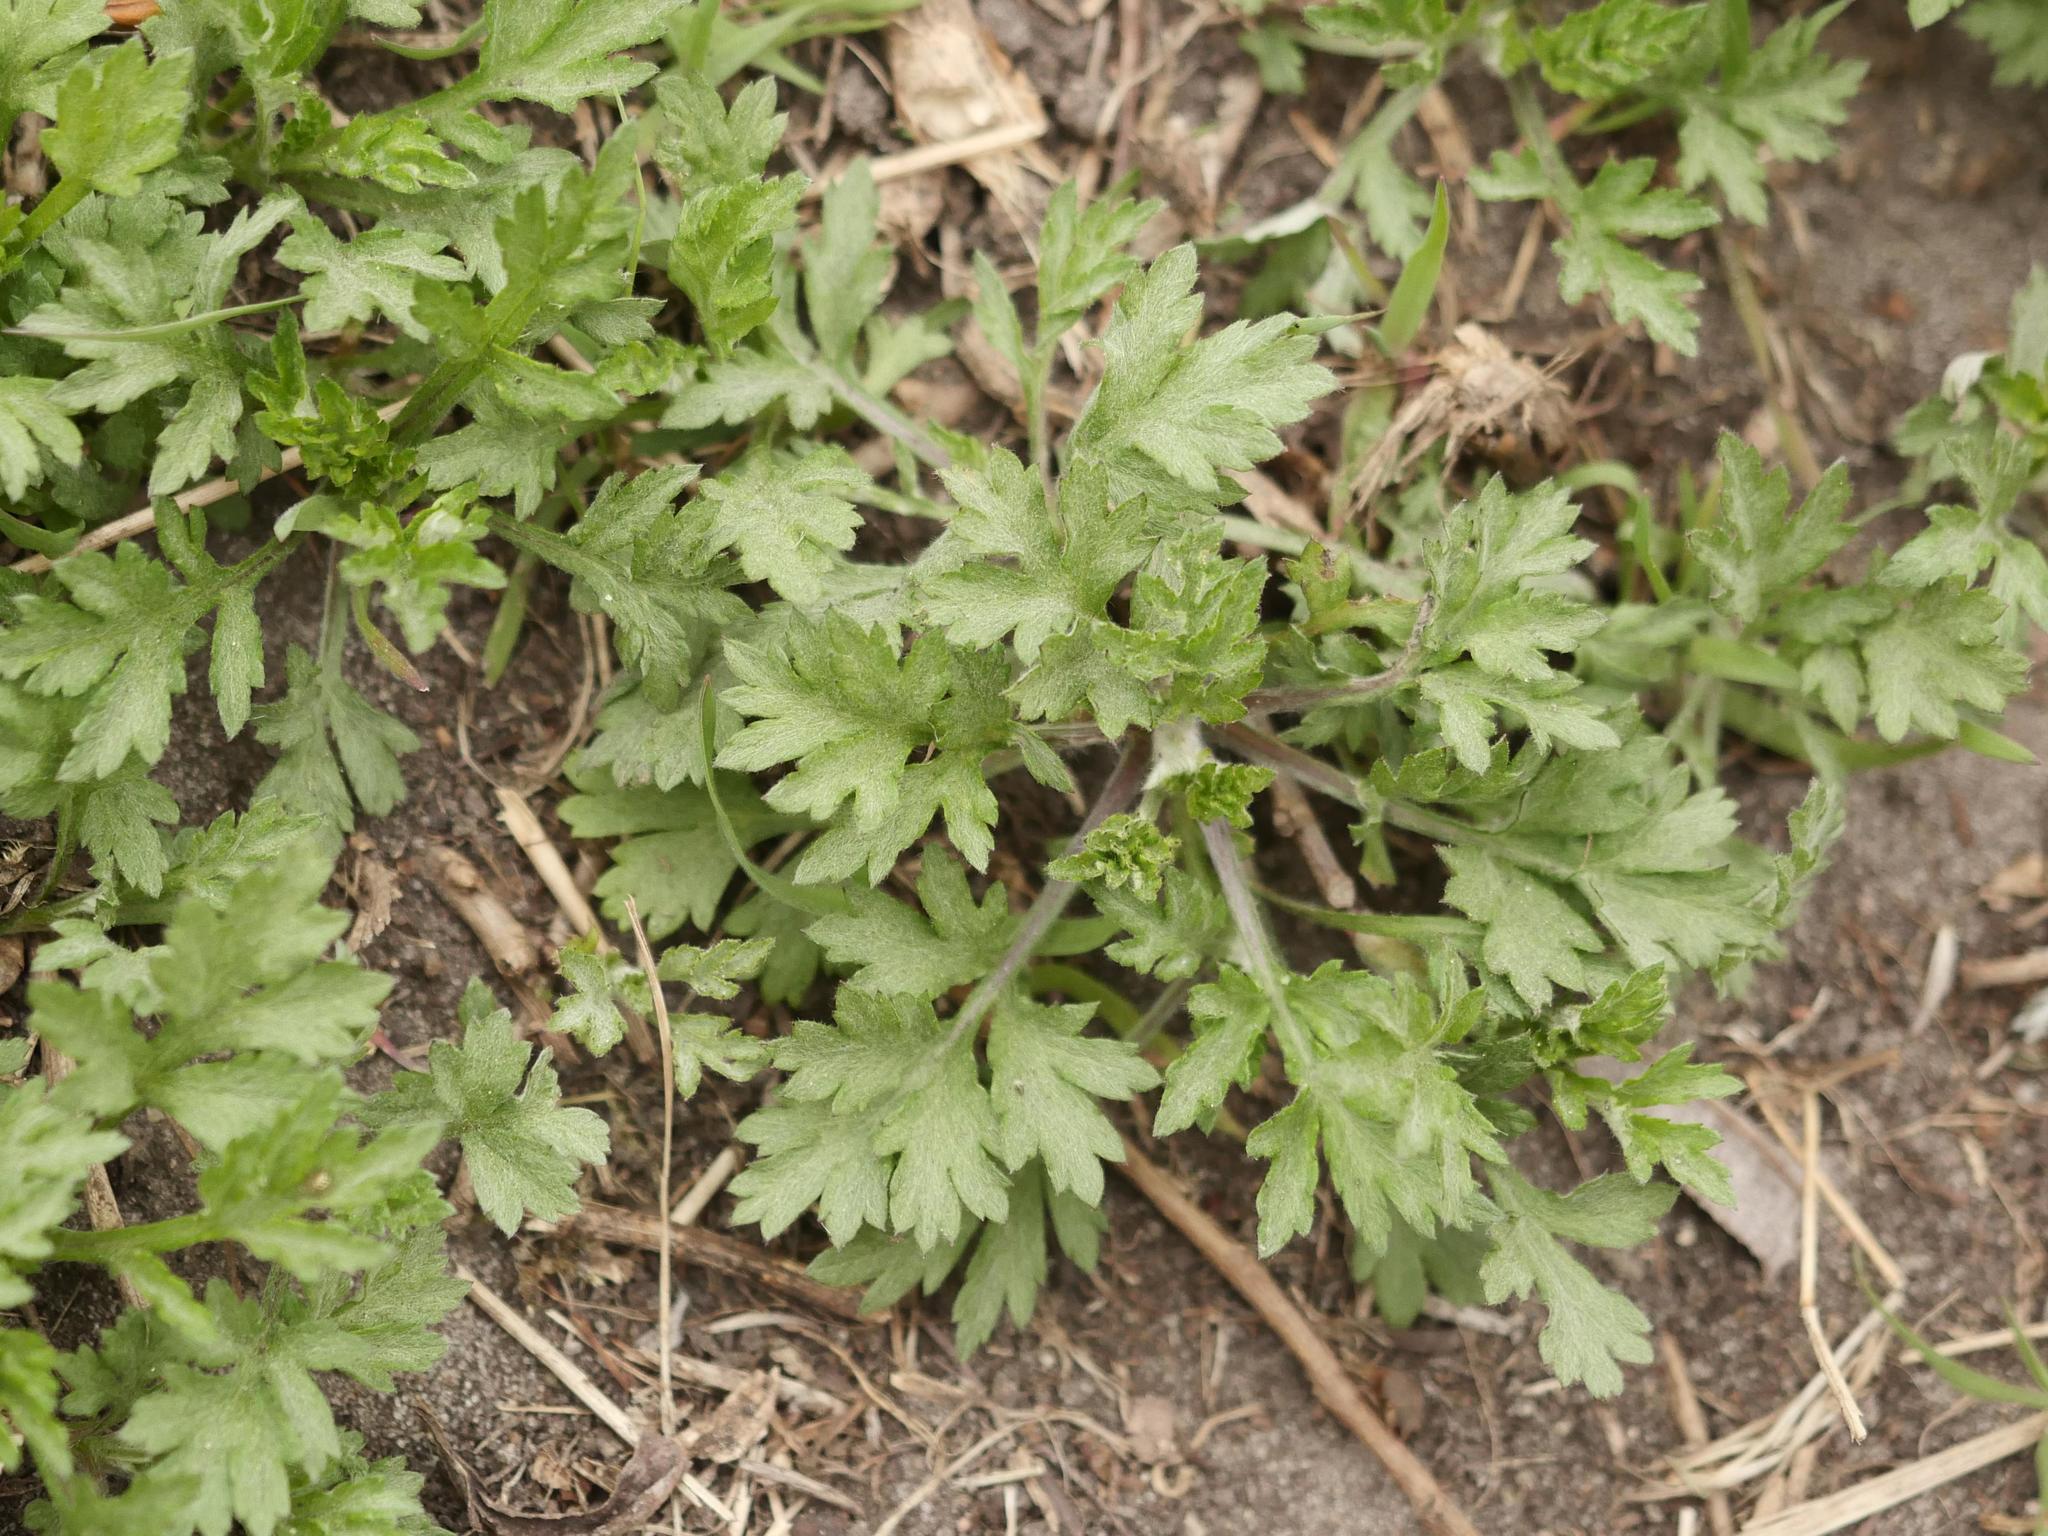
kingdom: Plantae
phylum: Tracheophyta
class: Magnoliopsida
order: Asterales
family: Asteraceae
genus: Artemisia
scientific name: Artemisia vulgaris
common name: Mugwort
